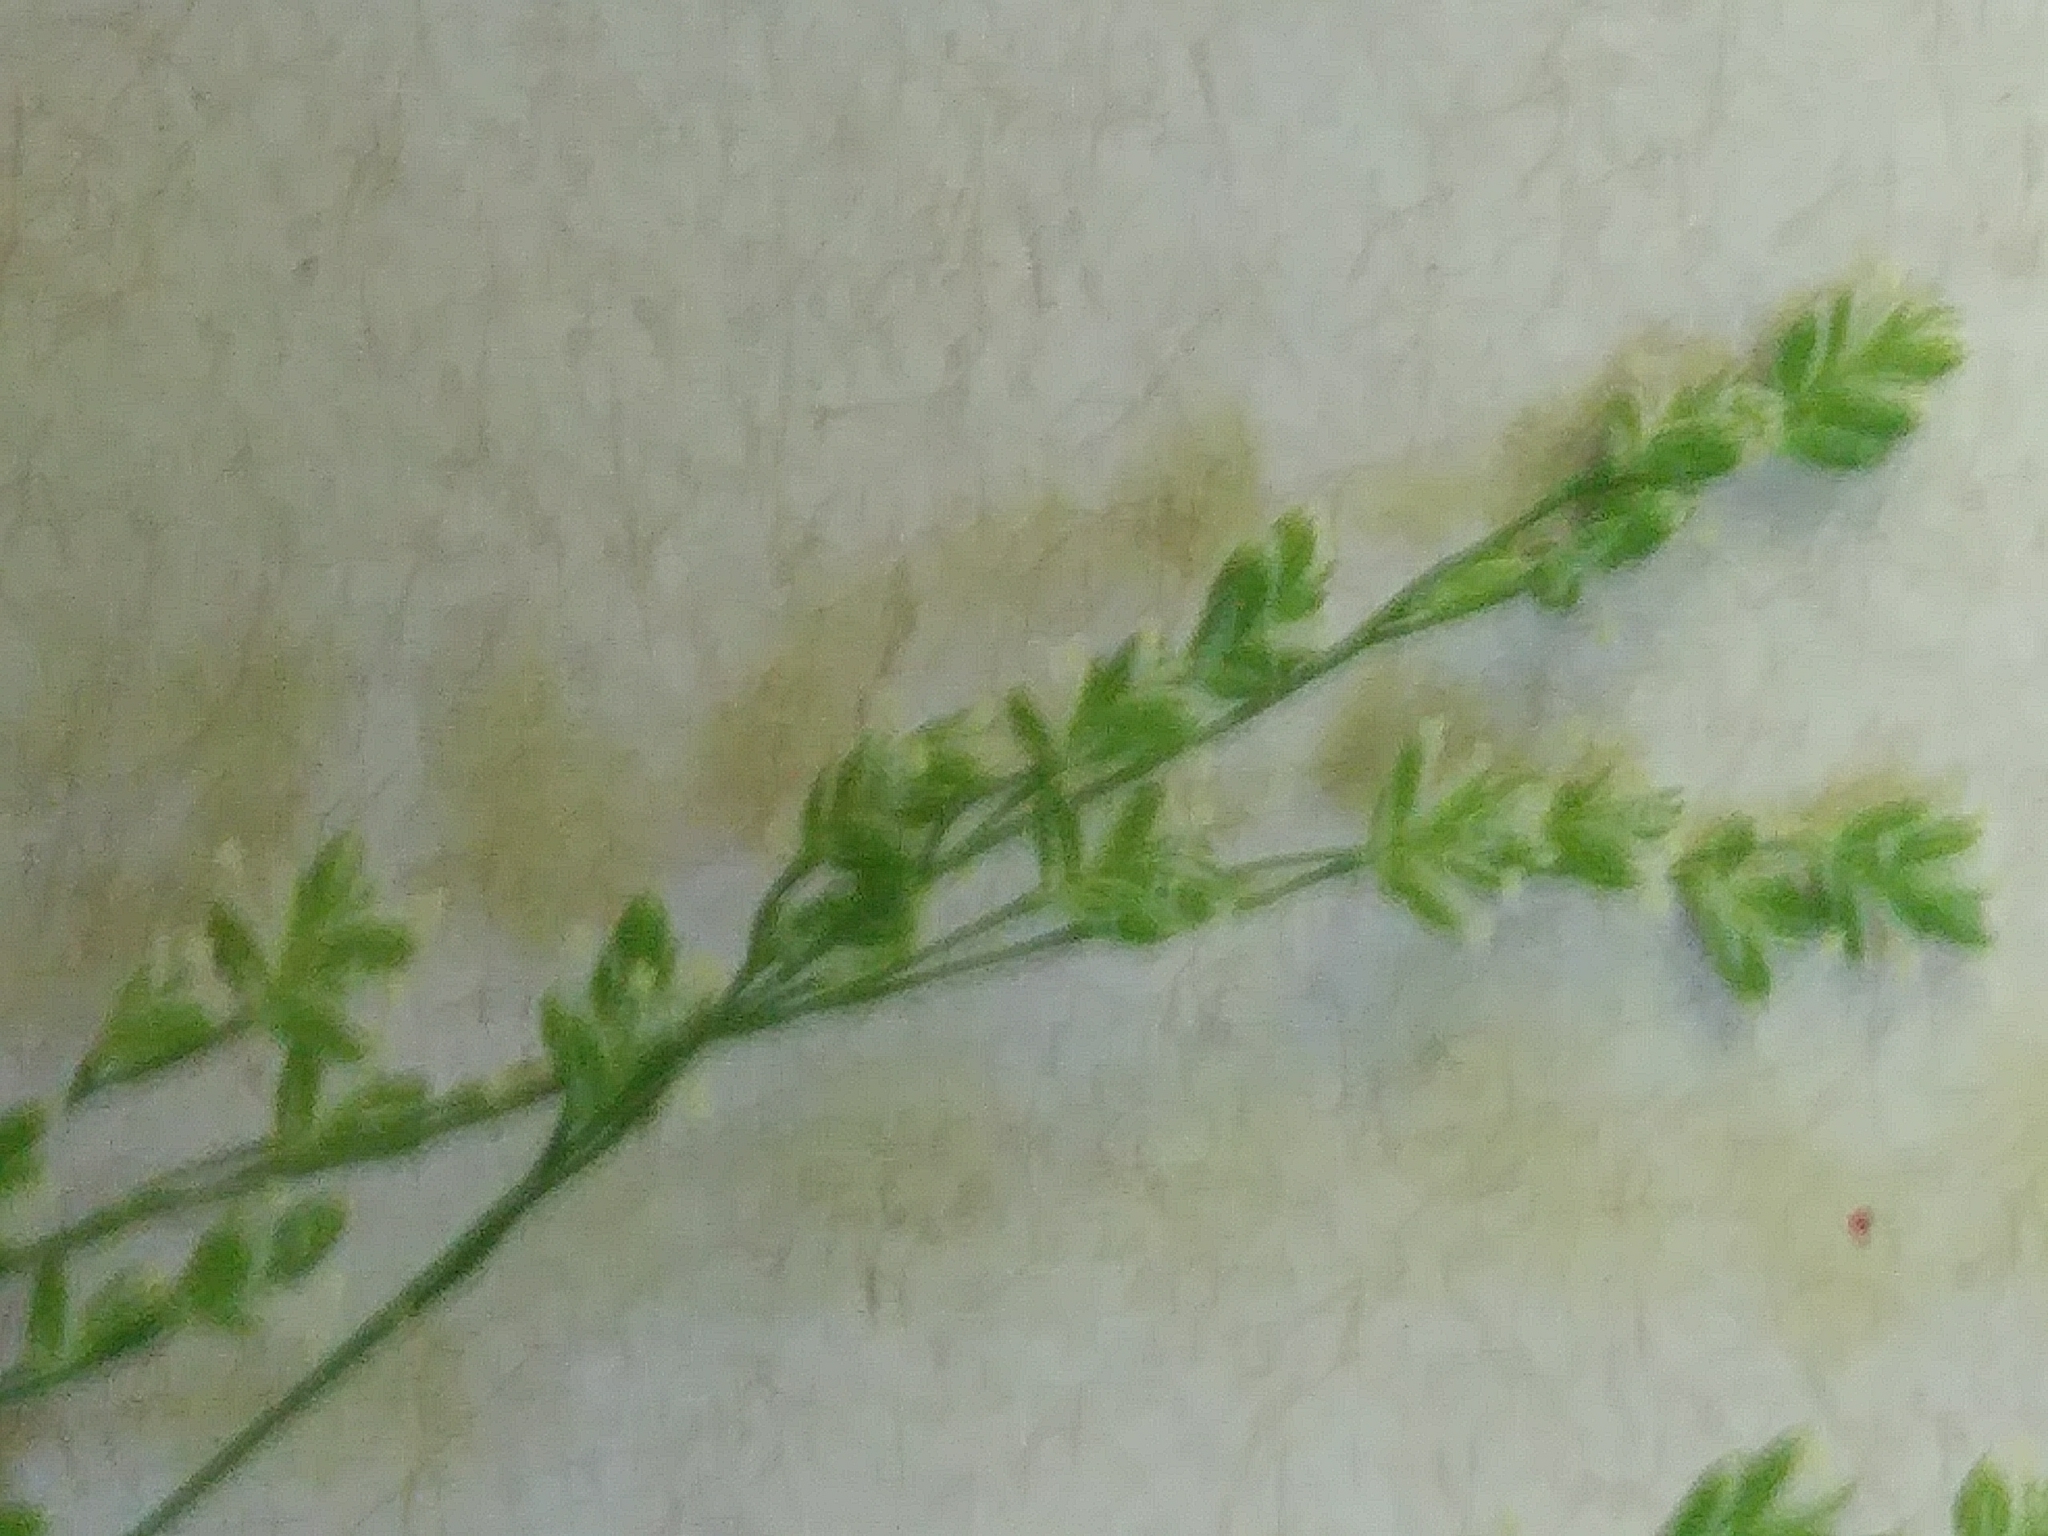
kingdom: Plantae
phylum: Tracheophyta
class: Liliopsida
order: Poales
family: Poaceae
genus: Glyceria
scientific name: Glyceria striata
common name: Fowl manna grass
